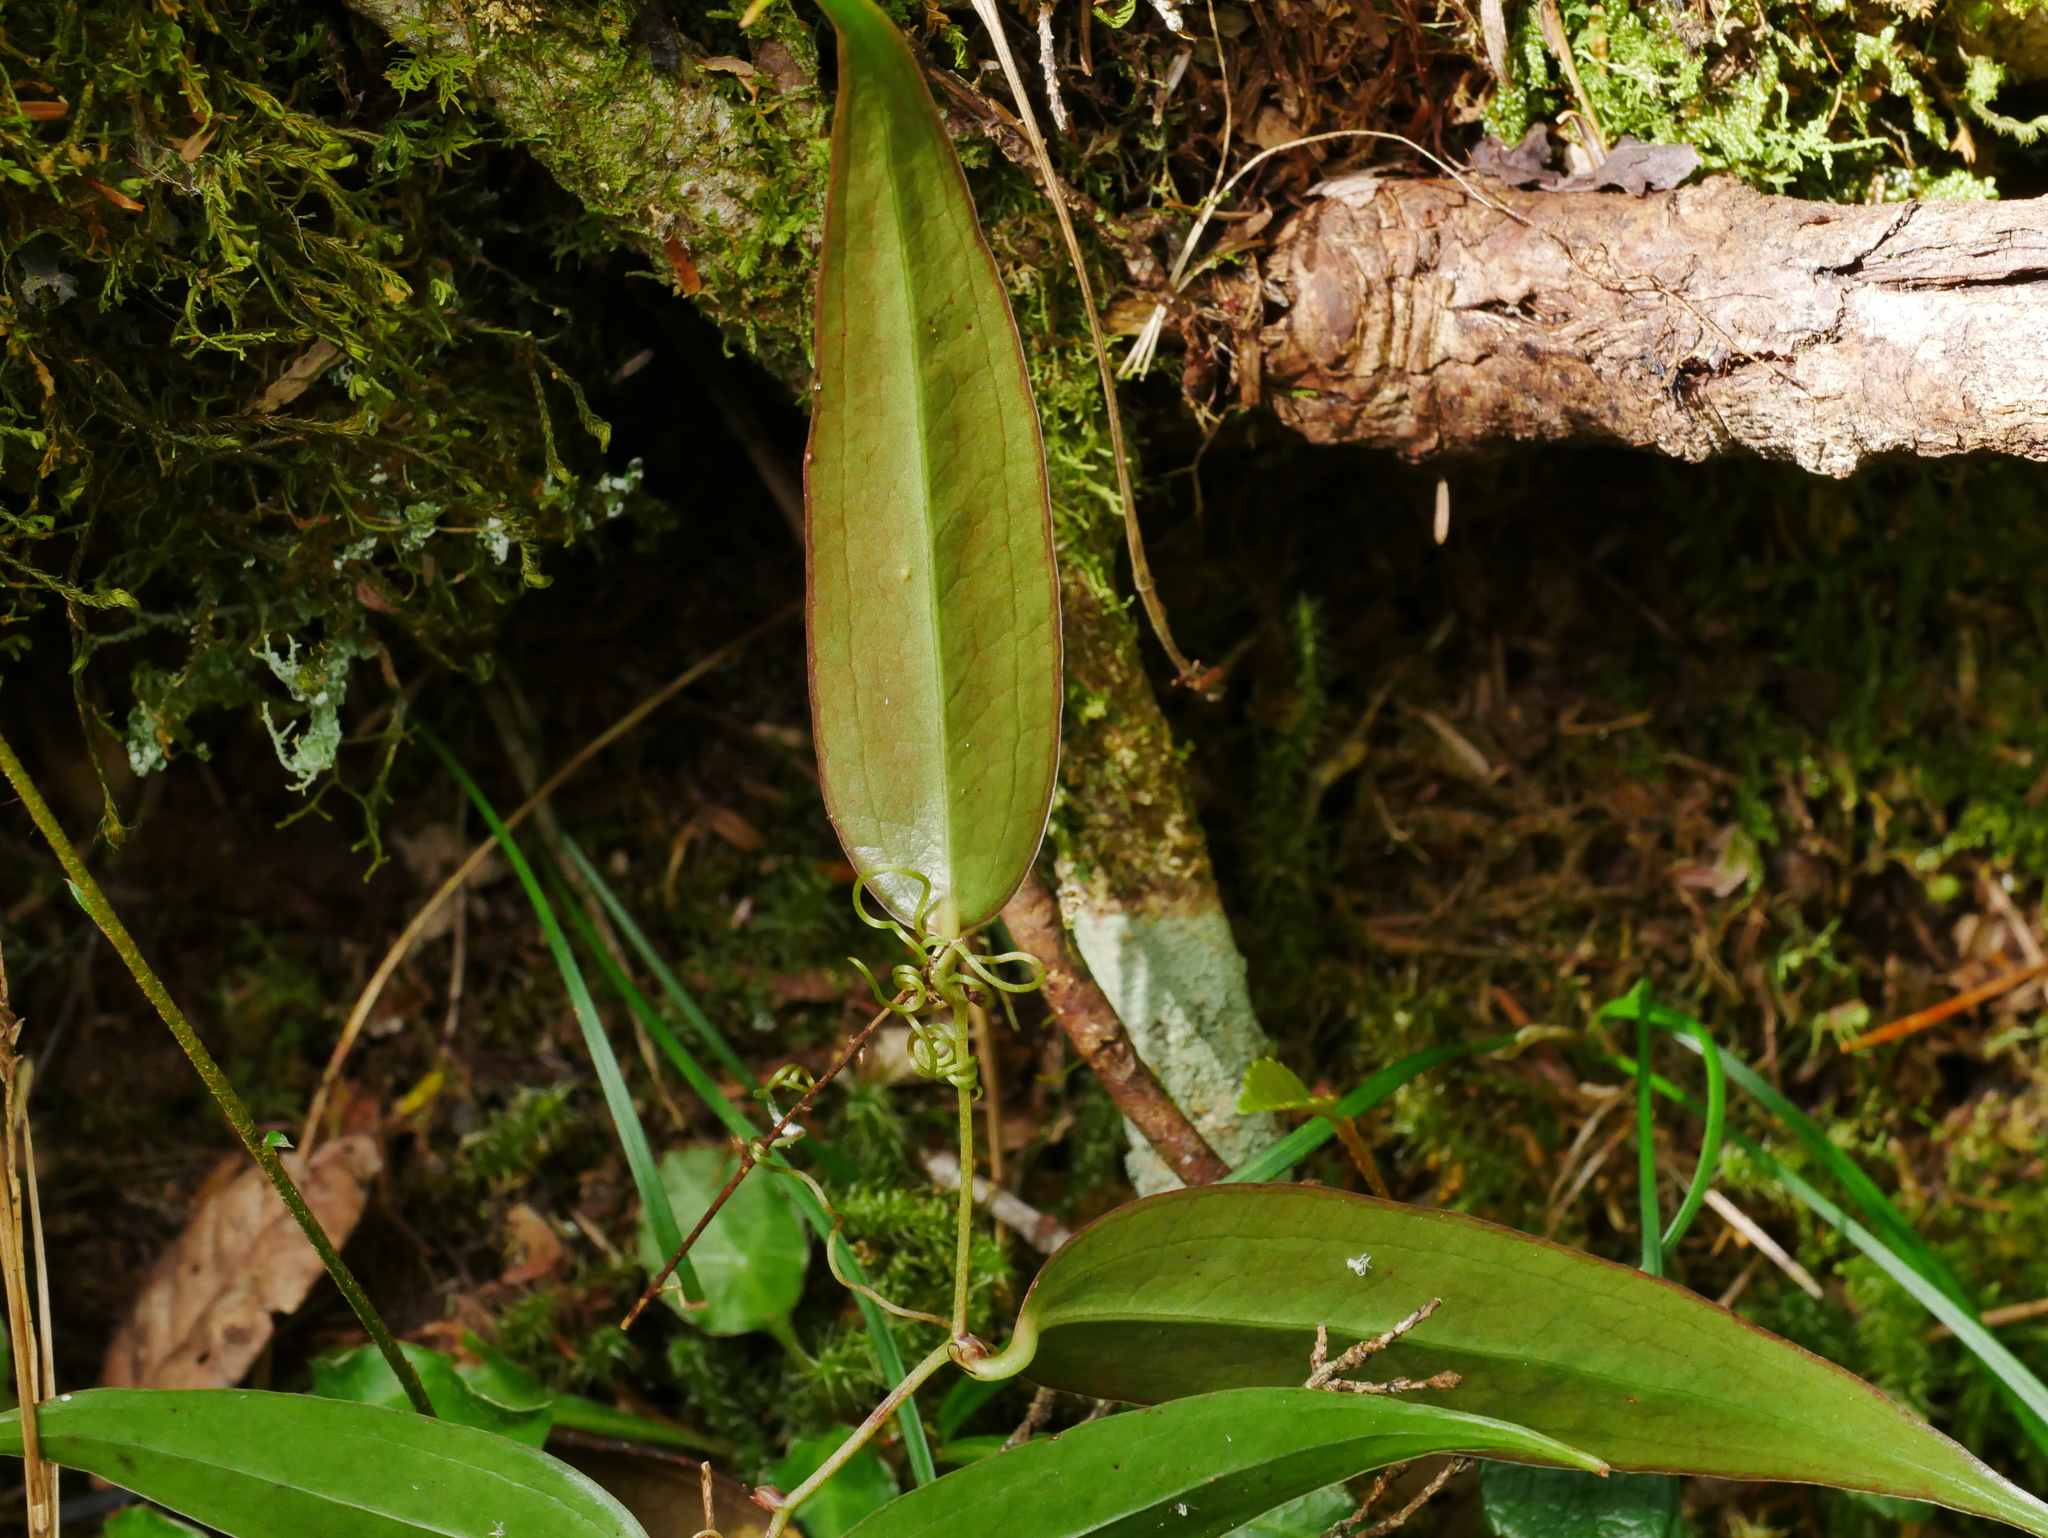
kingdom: Plantae
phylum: Tracheophyta
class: Liliopsida
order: Liliales
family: Smilacaceae
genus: Smilax
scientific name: Smilax arisanensis
